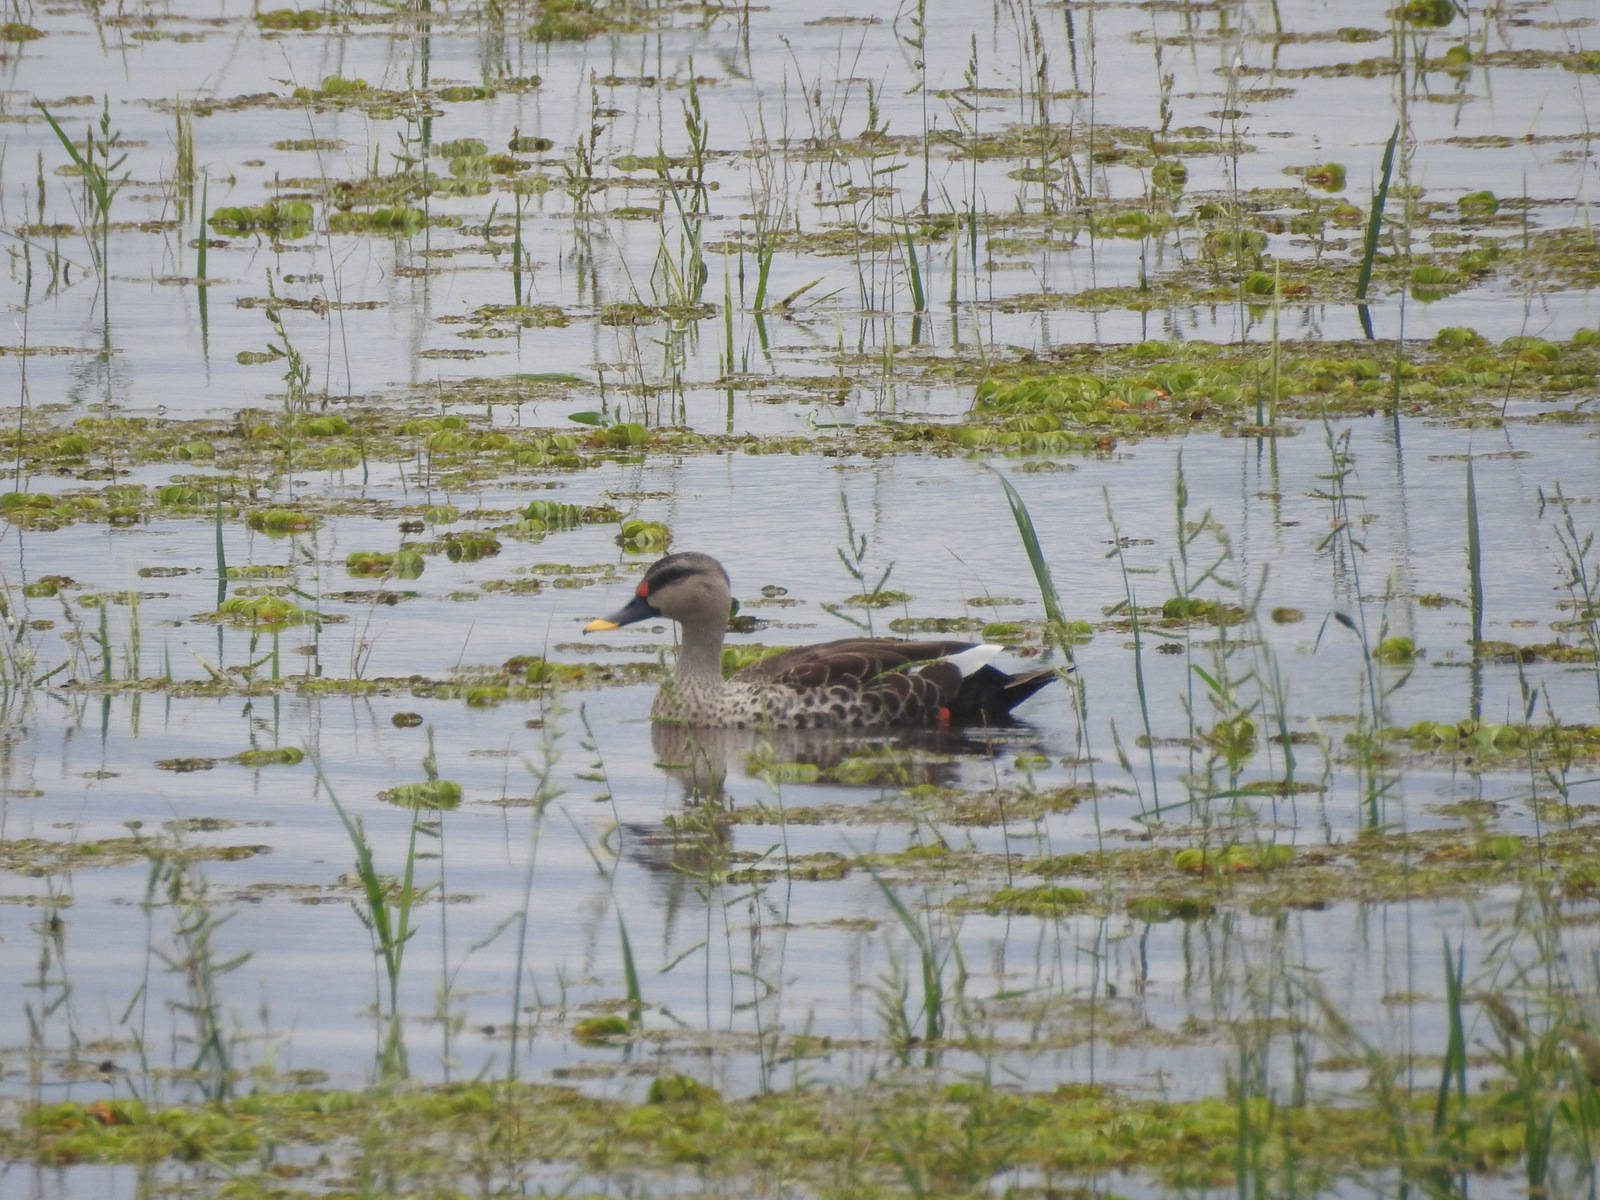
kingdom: Animalia
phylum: Chordata
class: Aves
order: Anseriformes
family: Anatidae
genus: Anas
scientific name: Anas poecilorhyncha
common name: Indian spot-billed duck
